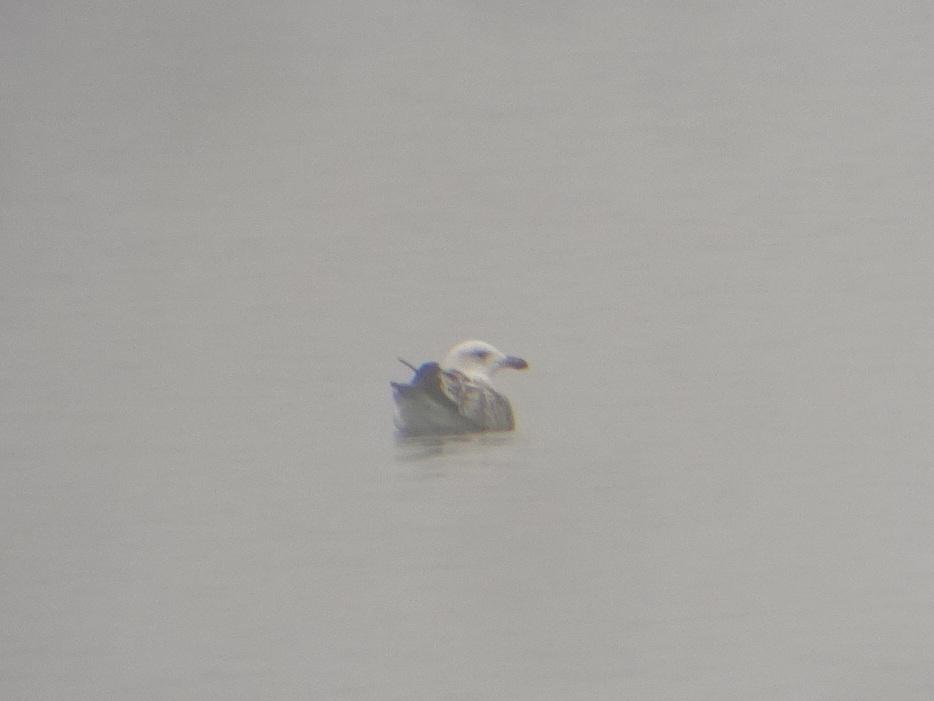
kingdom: Animalia
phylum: Chordata
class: Aves
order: Charadriiformes
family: Laridae
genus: Larus
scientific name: Larus marinus
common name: Great black-backed gull
